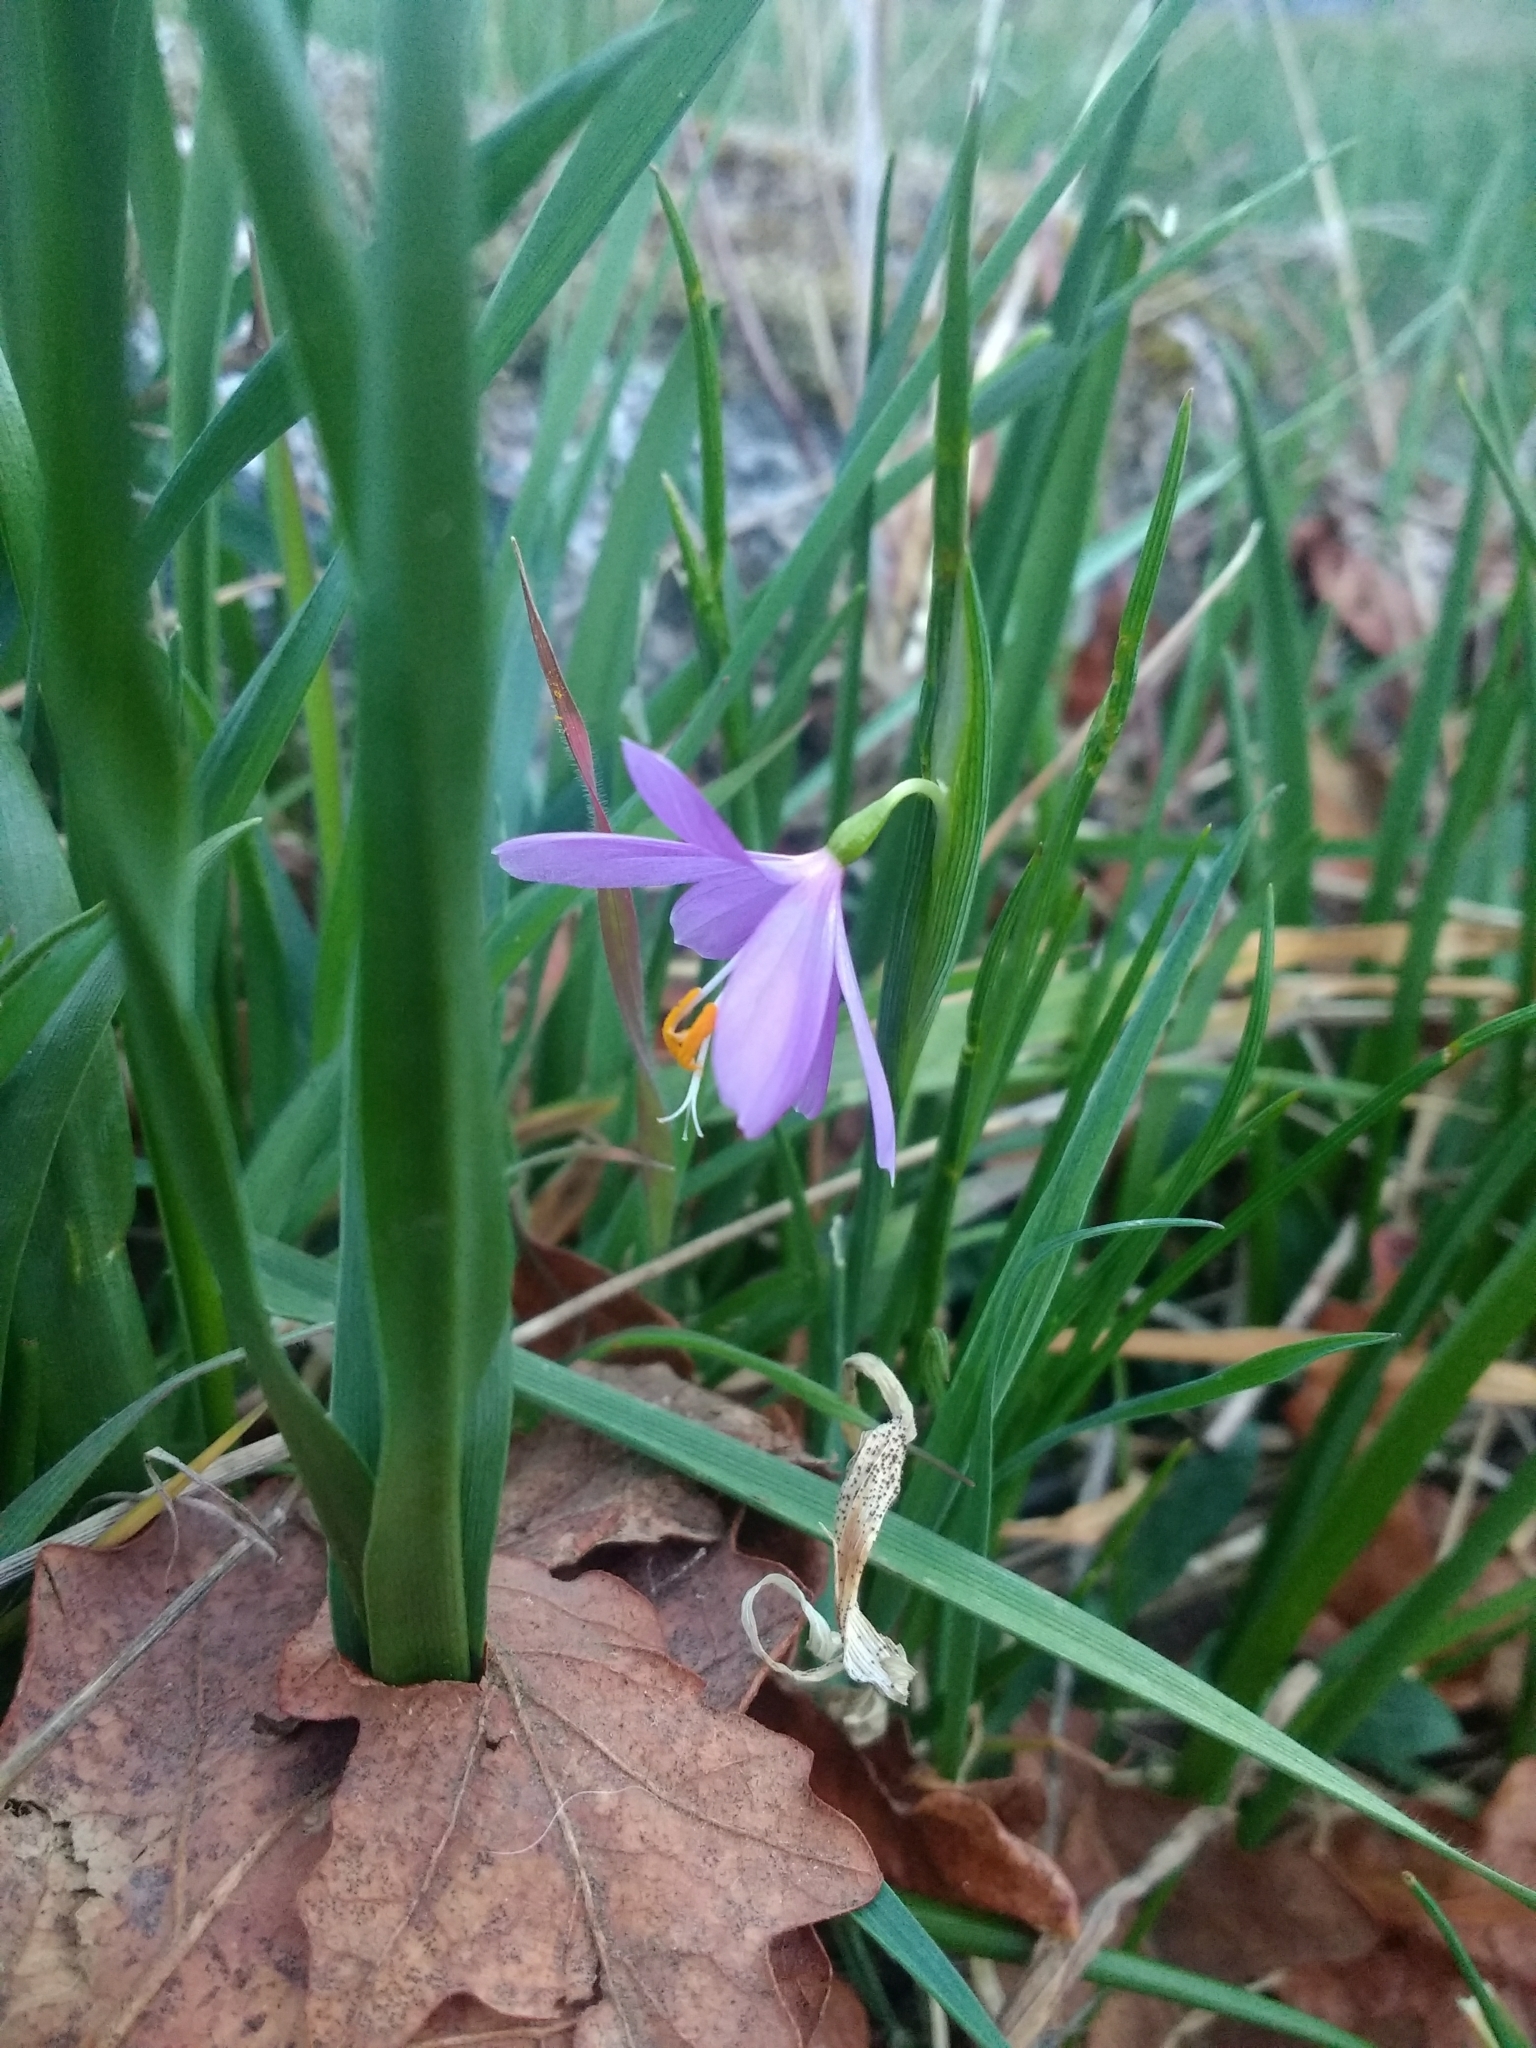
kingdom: Plantae
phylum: Tracheophyta
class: Liliopsida
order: Asparagales
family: Iridaceae
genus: Olsynium
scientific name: Olsynium douglasii
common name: Douglas' grasswidow
